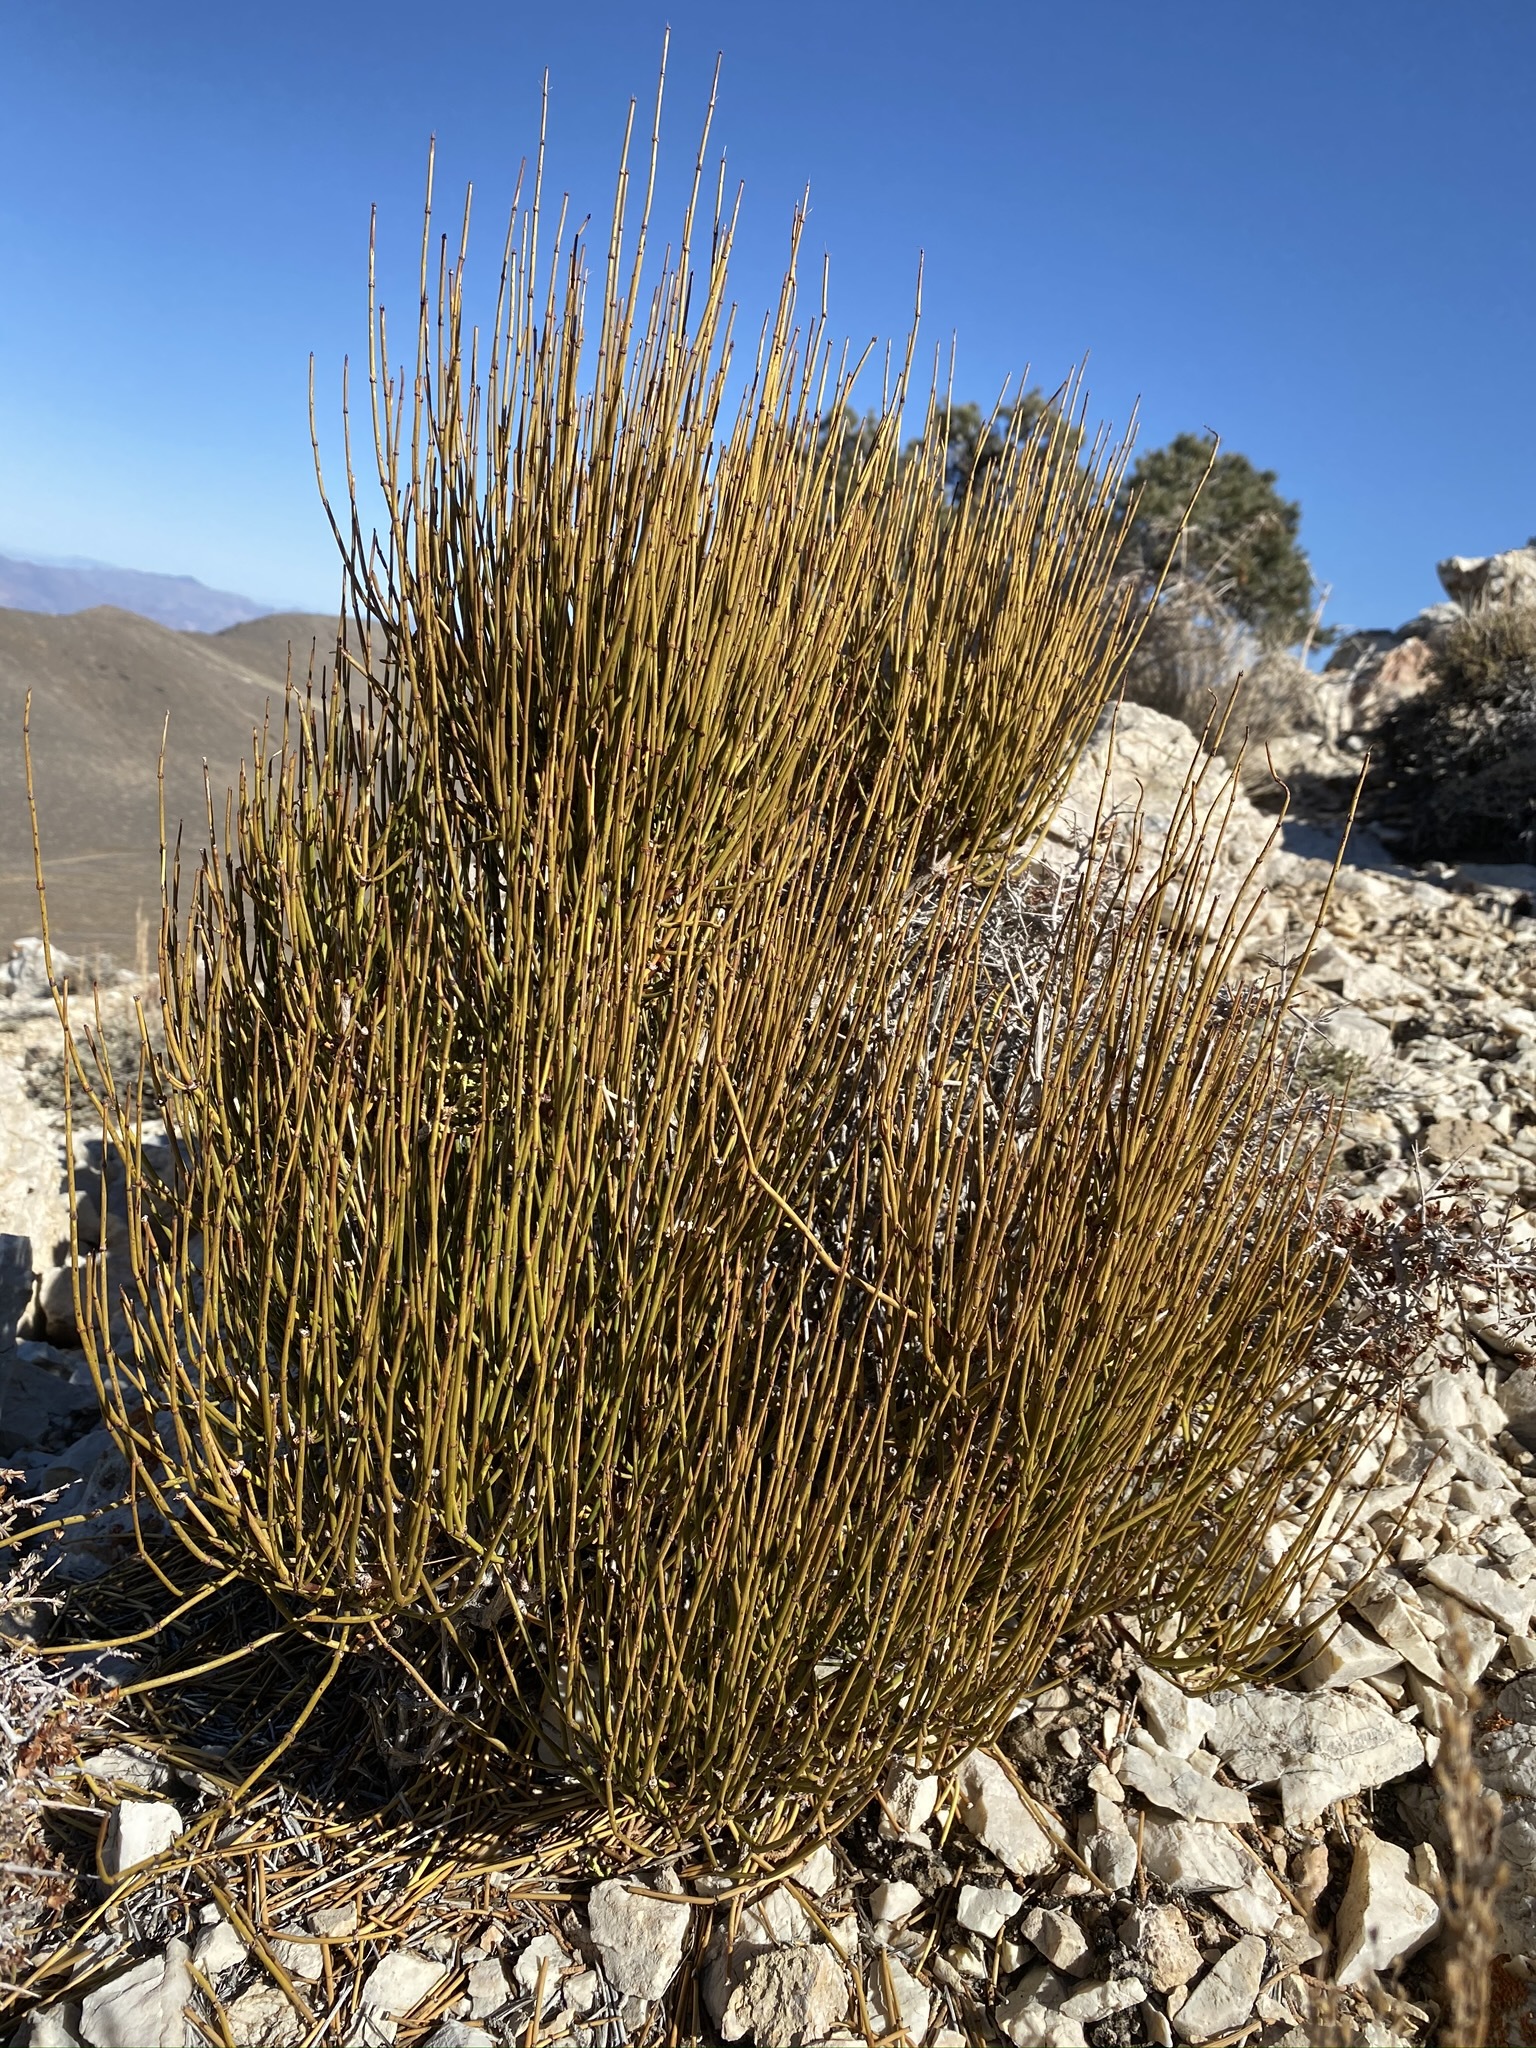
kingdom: Plantae
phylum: Tracheophyta
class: Gnetopsida
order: Ephedrales
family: Ephedraceae
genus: Ephedra
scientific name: Ephedra viridis
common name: Green ephedra
